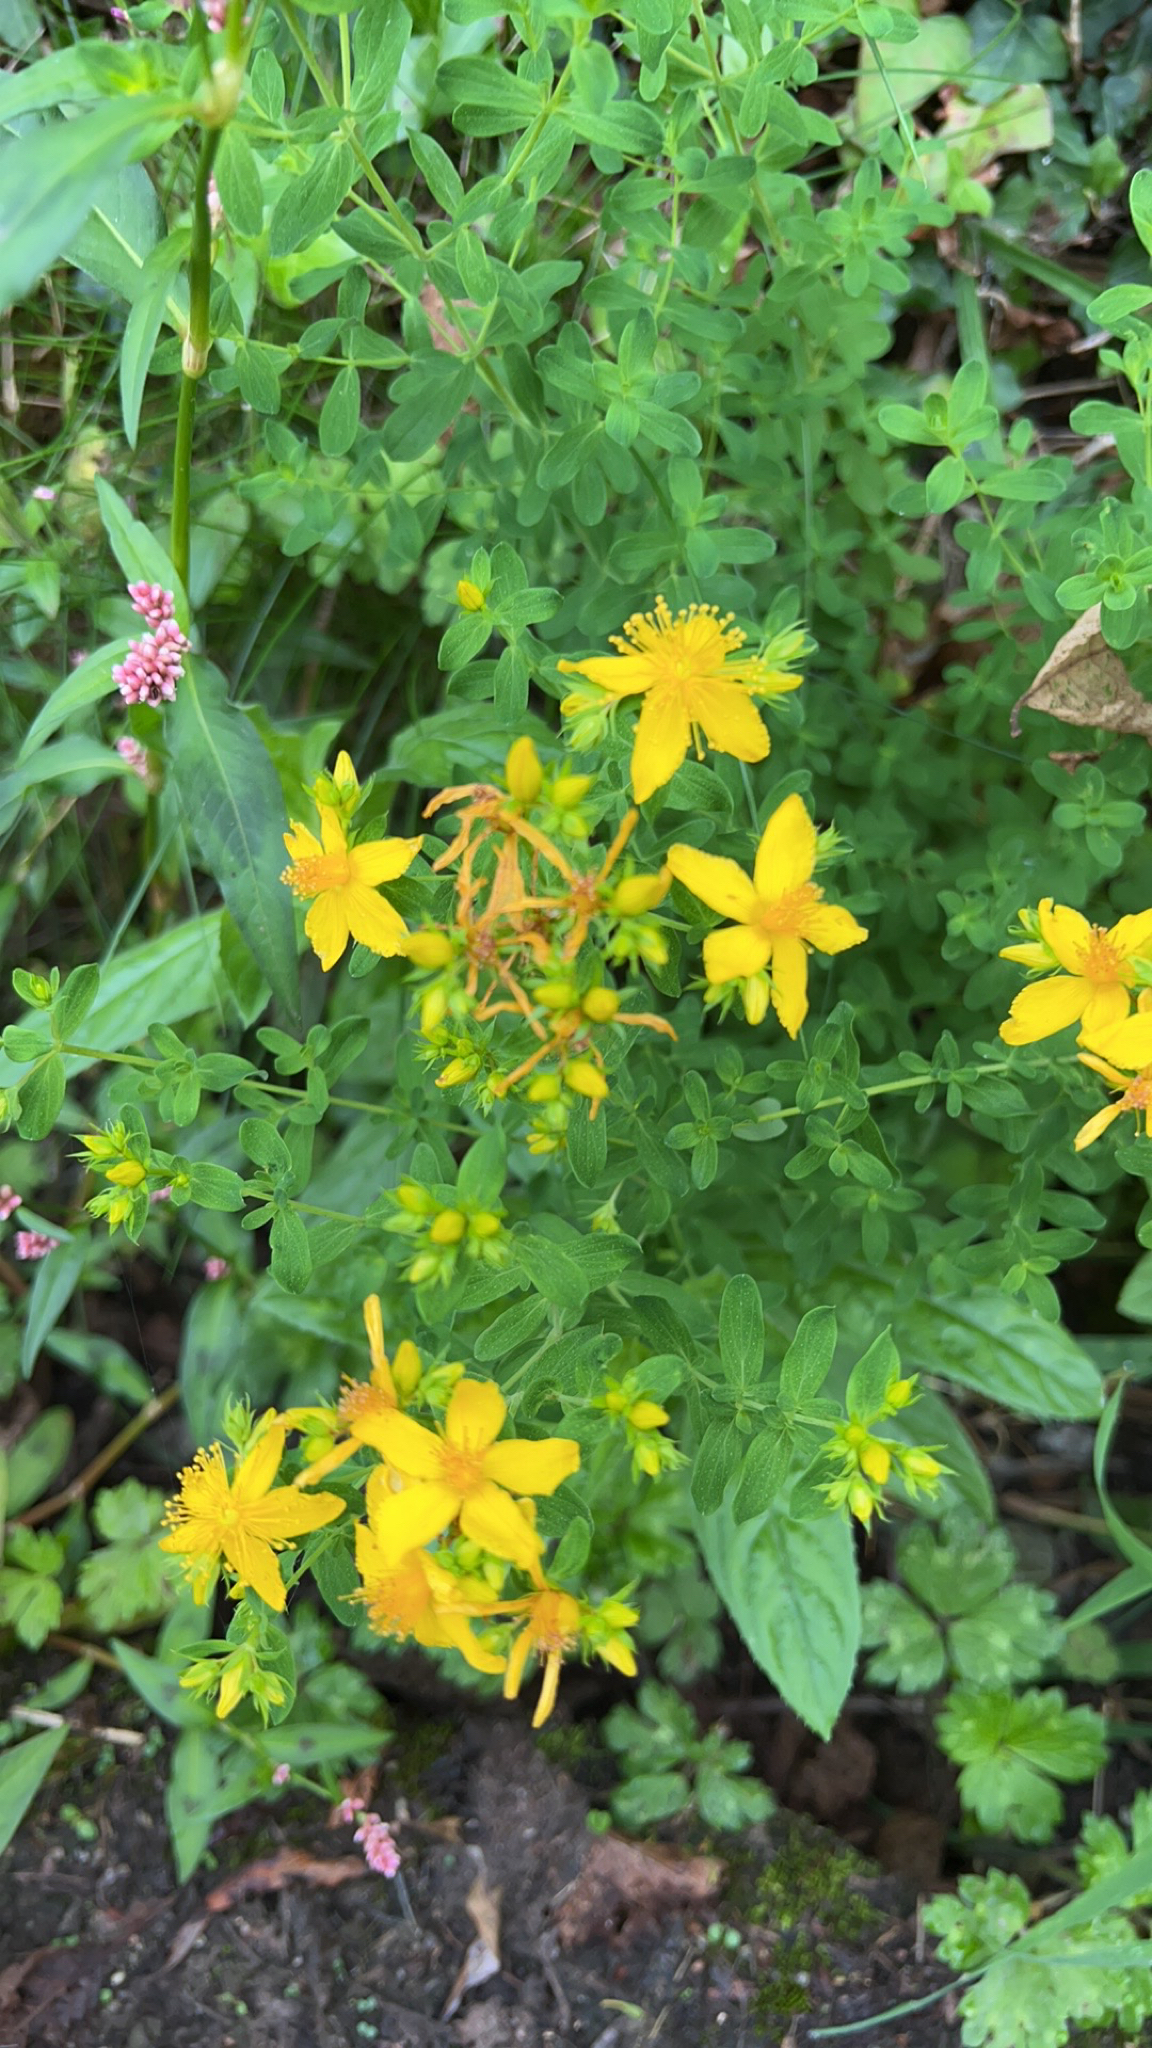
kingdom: Plantae
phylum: Tracheophyta
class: Magnoliopsida
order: Malpighiales
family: Hypericaceae
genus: Hypericum
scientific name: Hypericum perforatum
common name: Common st. johnswort
